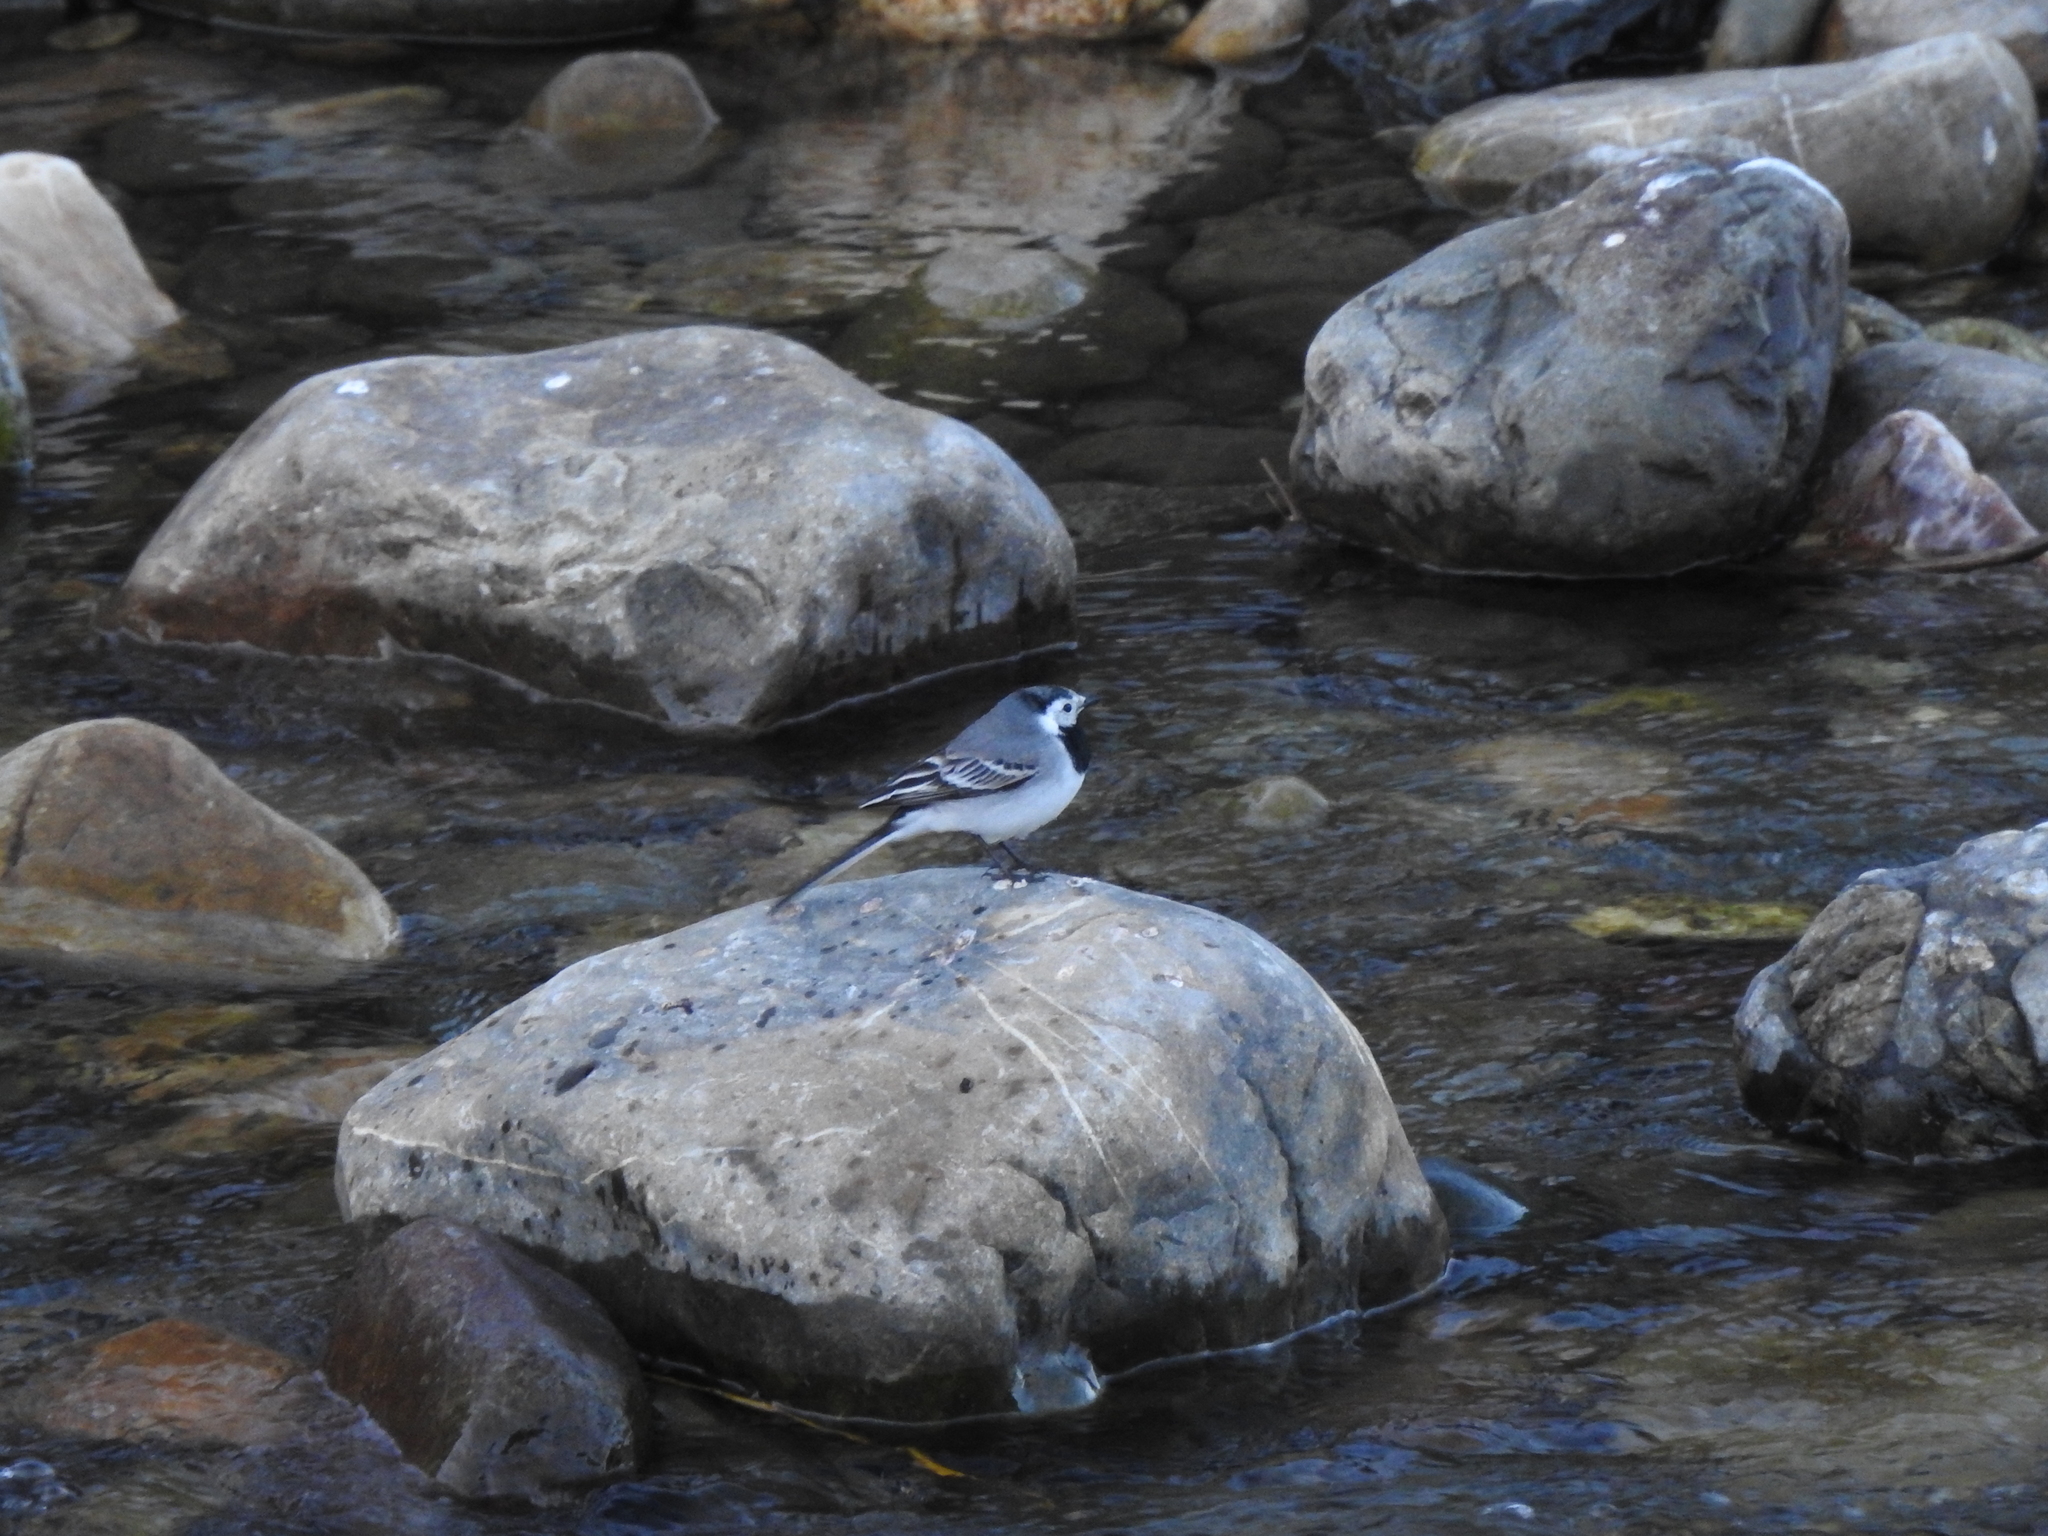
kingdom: Animalia
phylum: Chordata
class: Aves
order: Passeriformes
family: Motacillidae
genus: Motacilla
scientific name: Motacilla alba
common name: White wagtail
